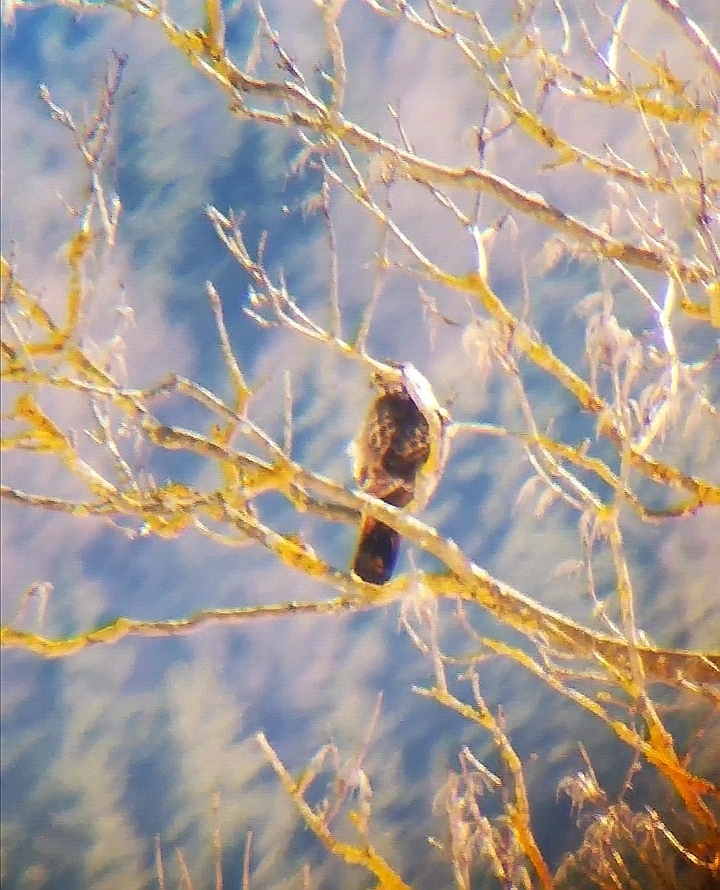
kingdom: Animalia
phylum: Chordata
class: Aves
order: Accipitriformes
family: Accipitridae
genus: Buteo
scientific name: Buteo buteo
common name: Common buzzard
